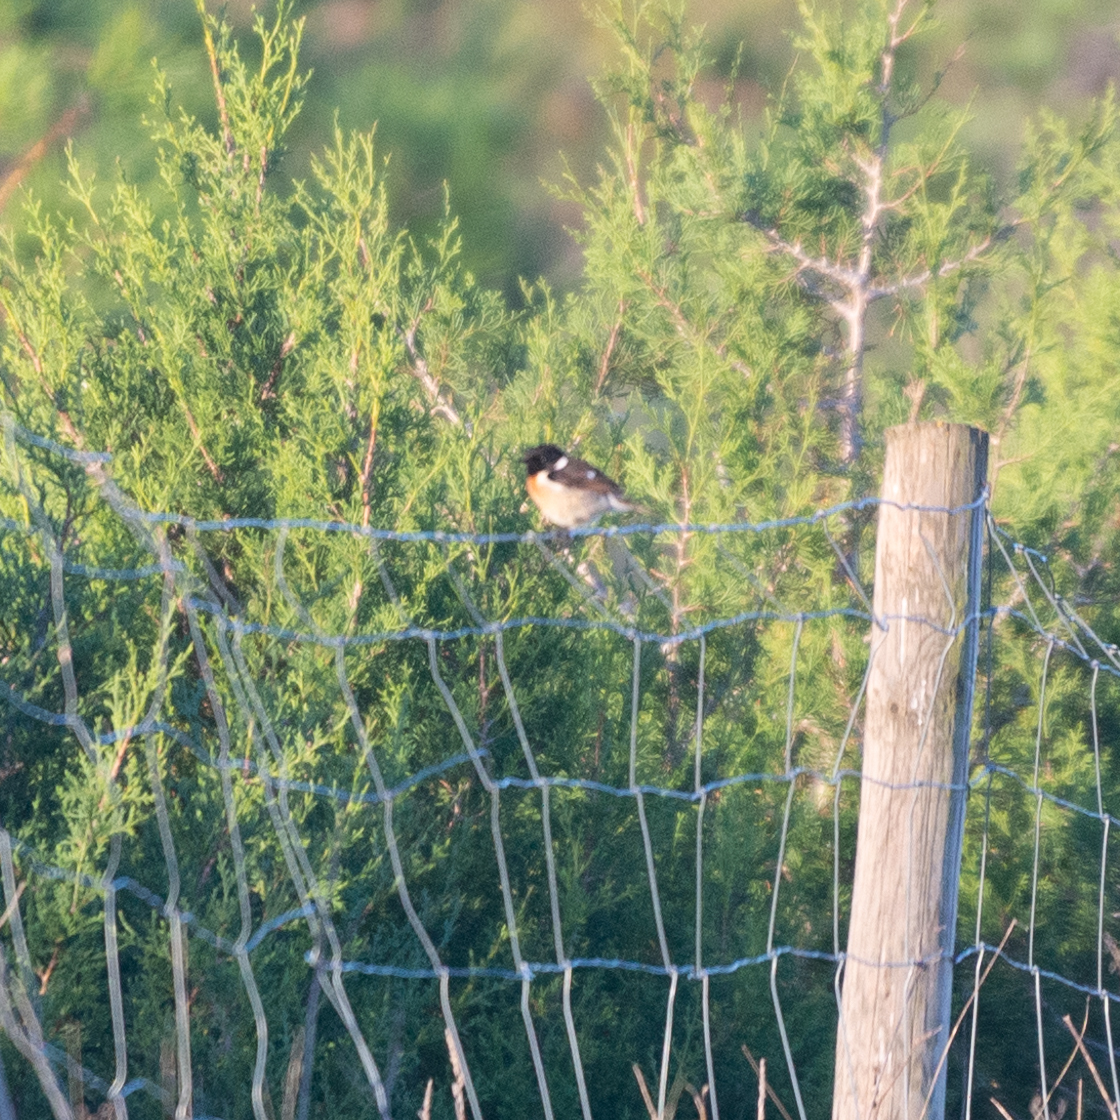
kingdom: Animalia
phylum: Chordata
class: Aves
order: Passeriformes
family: Muscicapidae
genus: Saxicola
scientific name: Saxicola rubicola
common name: European stonechat
